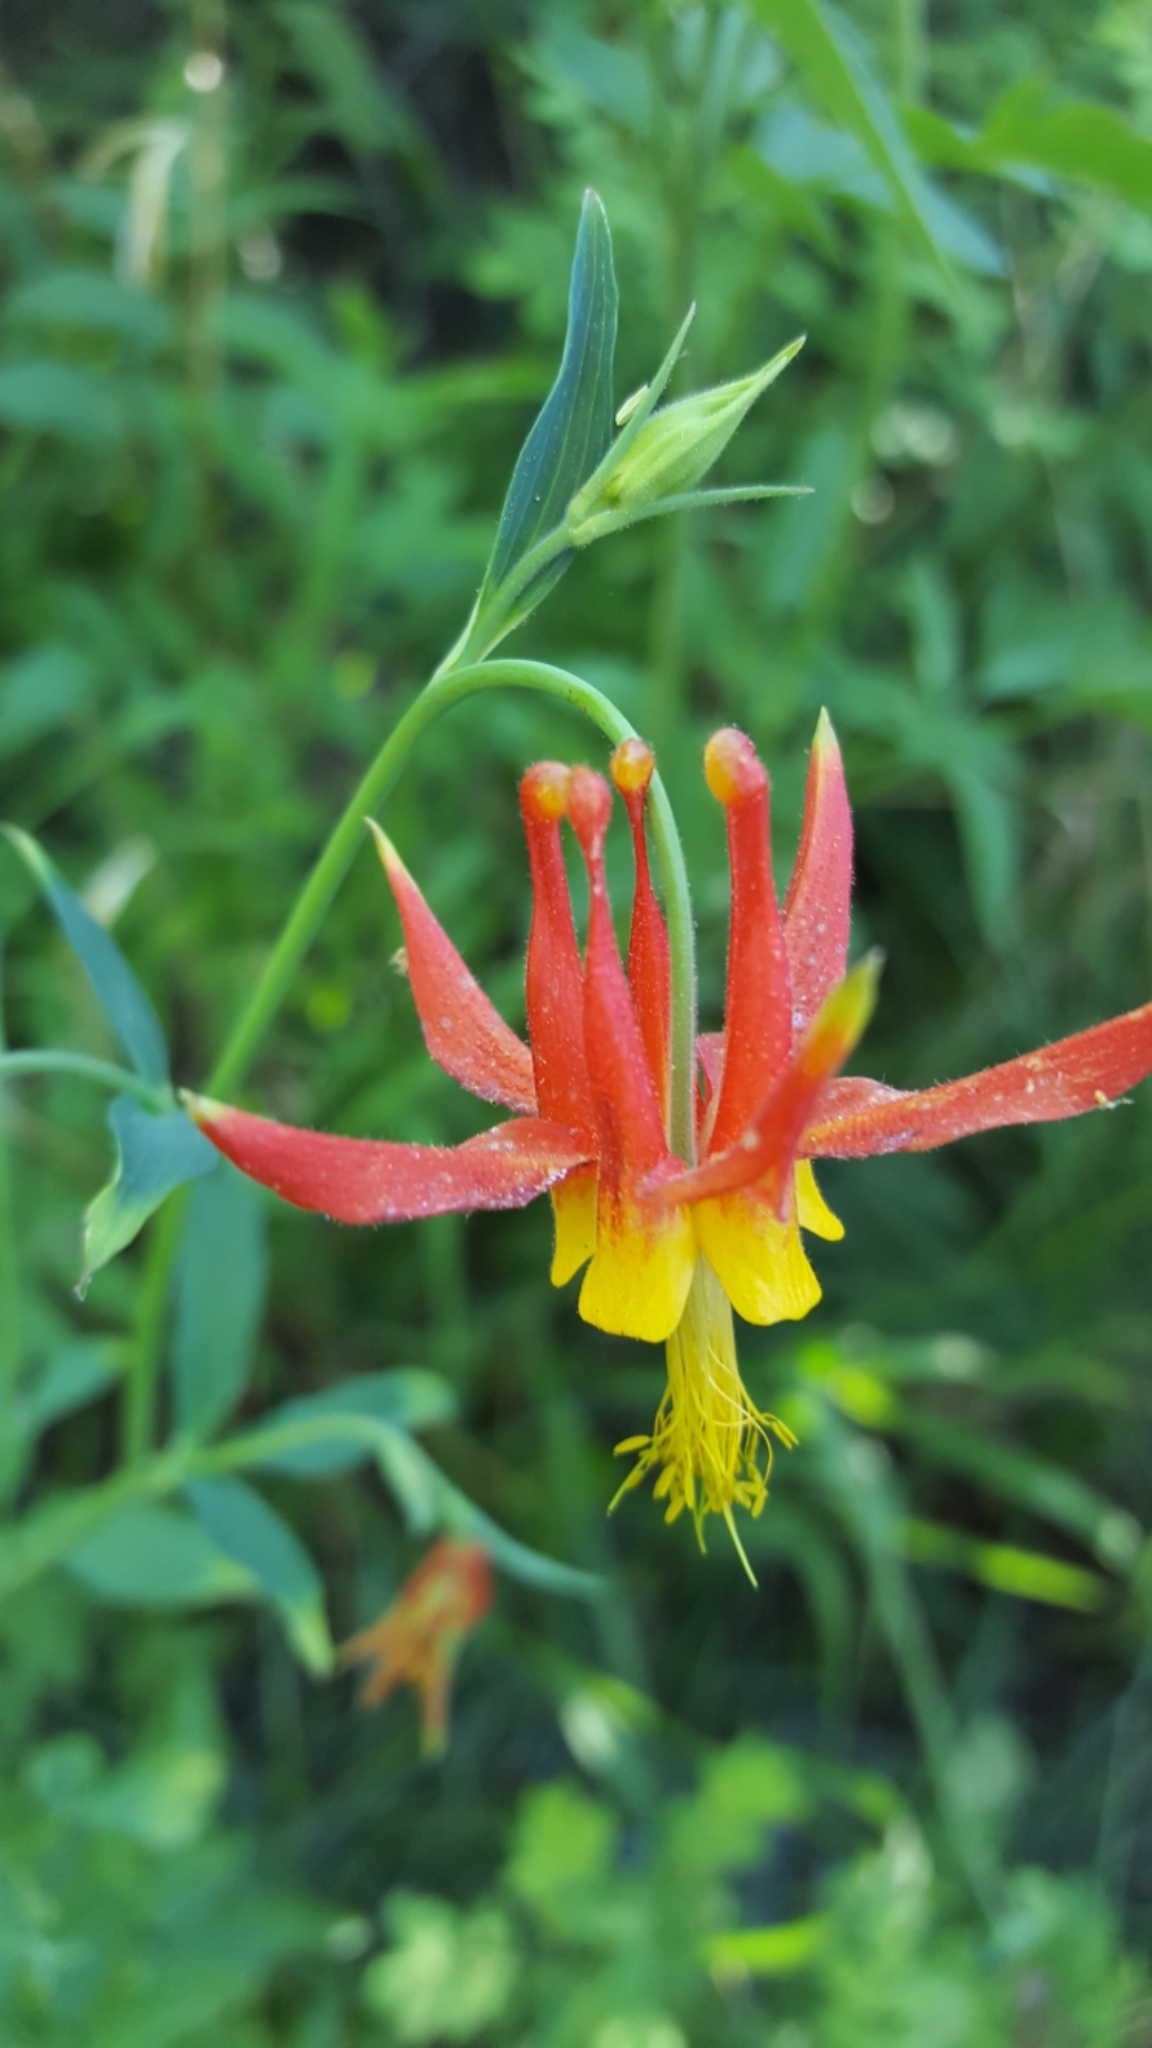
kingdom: Plantae
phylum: Tracheophyta
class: Magnoliopsida
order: Ranunculales
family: Ranunculaceae
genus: Aquilegia
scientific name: Aquilegia formosa
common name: Sitka columbine
